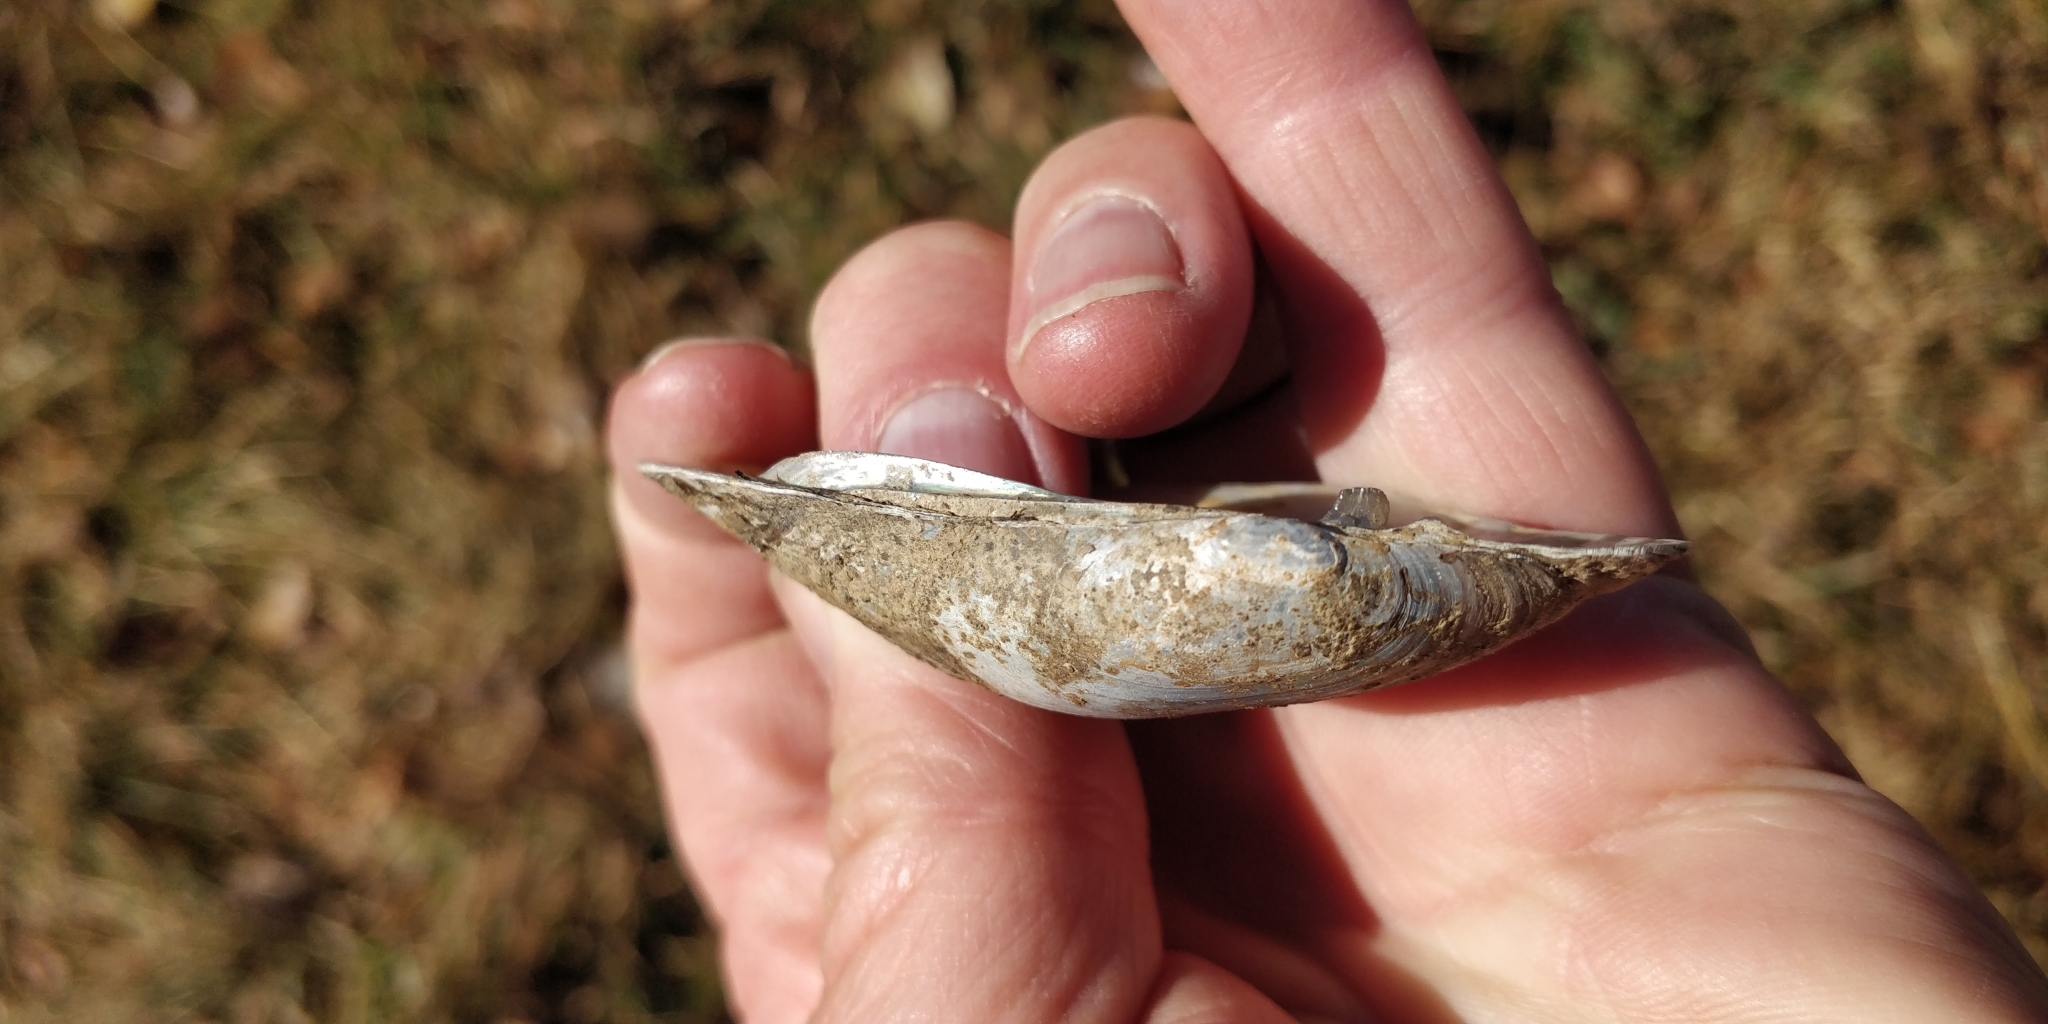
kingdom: Animalia
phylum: Mollusca
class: Bivalvia
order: Unionida
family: Unionidae
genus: Lampsilis
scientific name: Lampsilis siliquoidea
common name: Fatmucket
